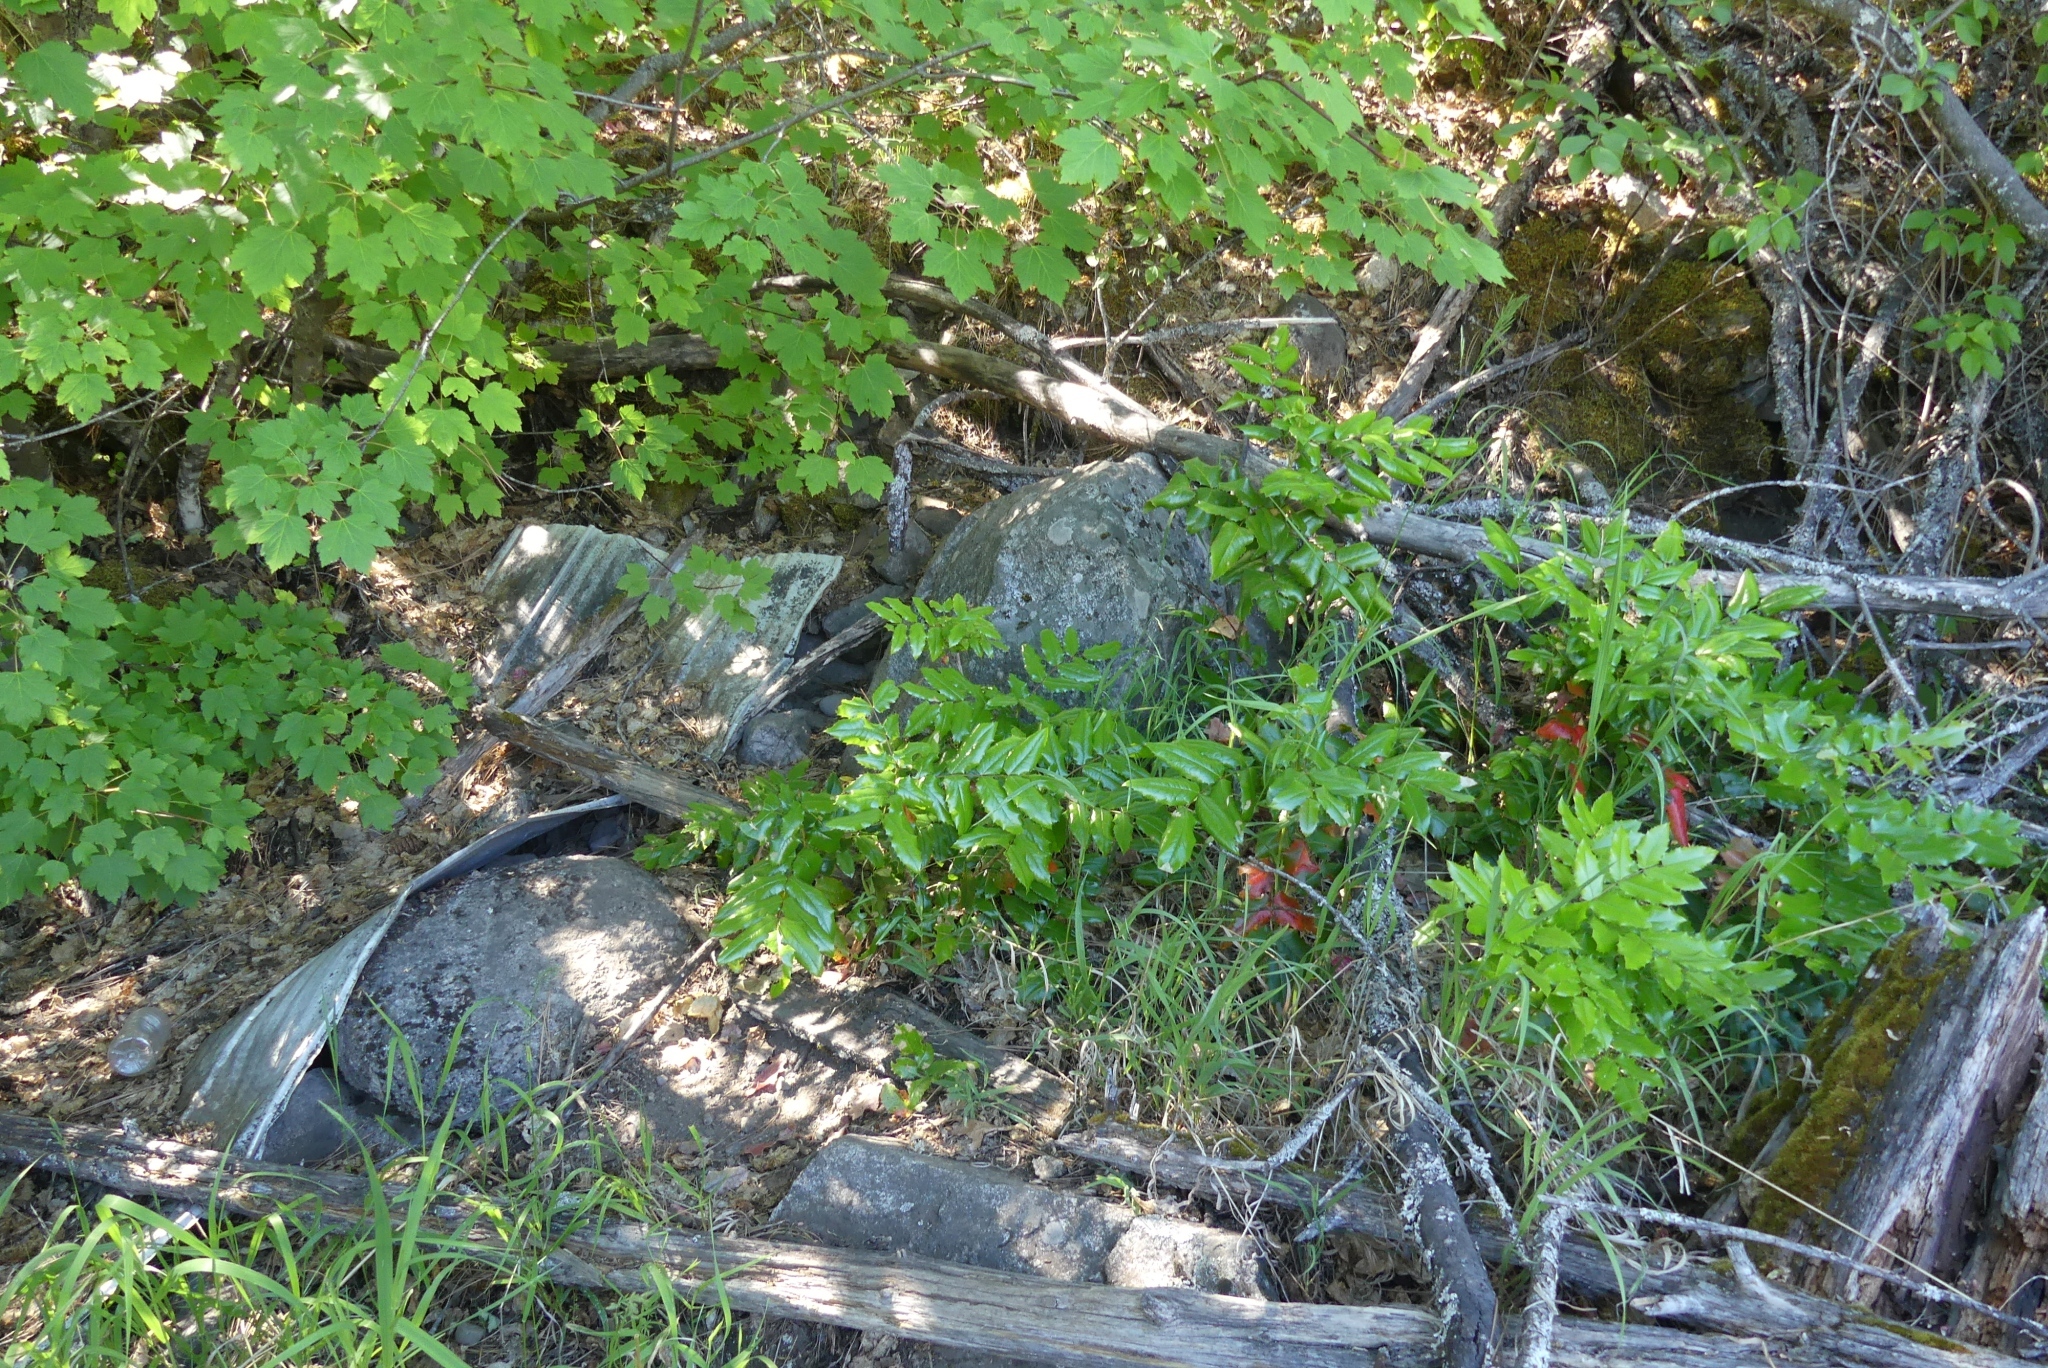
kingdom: Plantae
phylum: Tracheophyta
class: Magnoliopsida
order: Ranunculales
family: Berberidaceae
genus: Mahonia
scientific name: Mahonia aquifolium
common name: Oregon-grape
